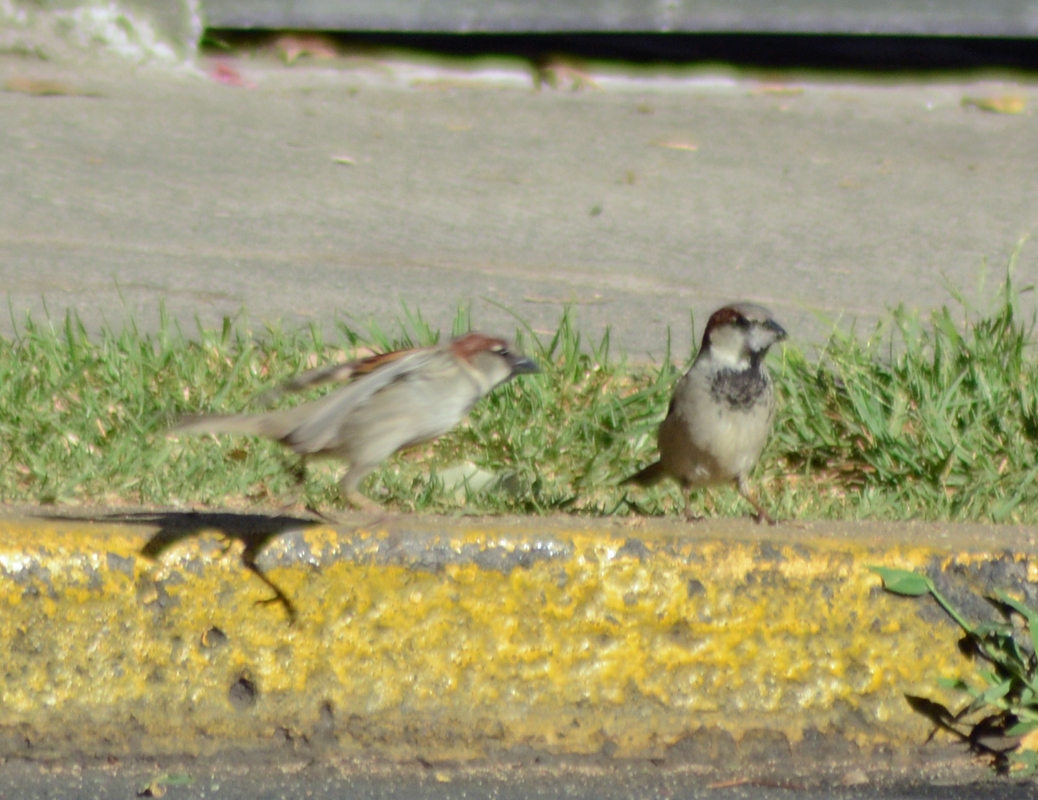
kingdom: Animalia
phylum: Chordata
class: Aves
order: Passeriformes
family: Passeridae
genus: Passer
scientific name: Passer domesticus
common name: House sparrow
